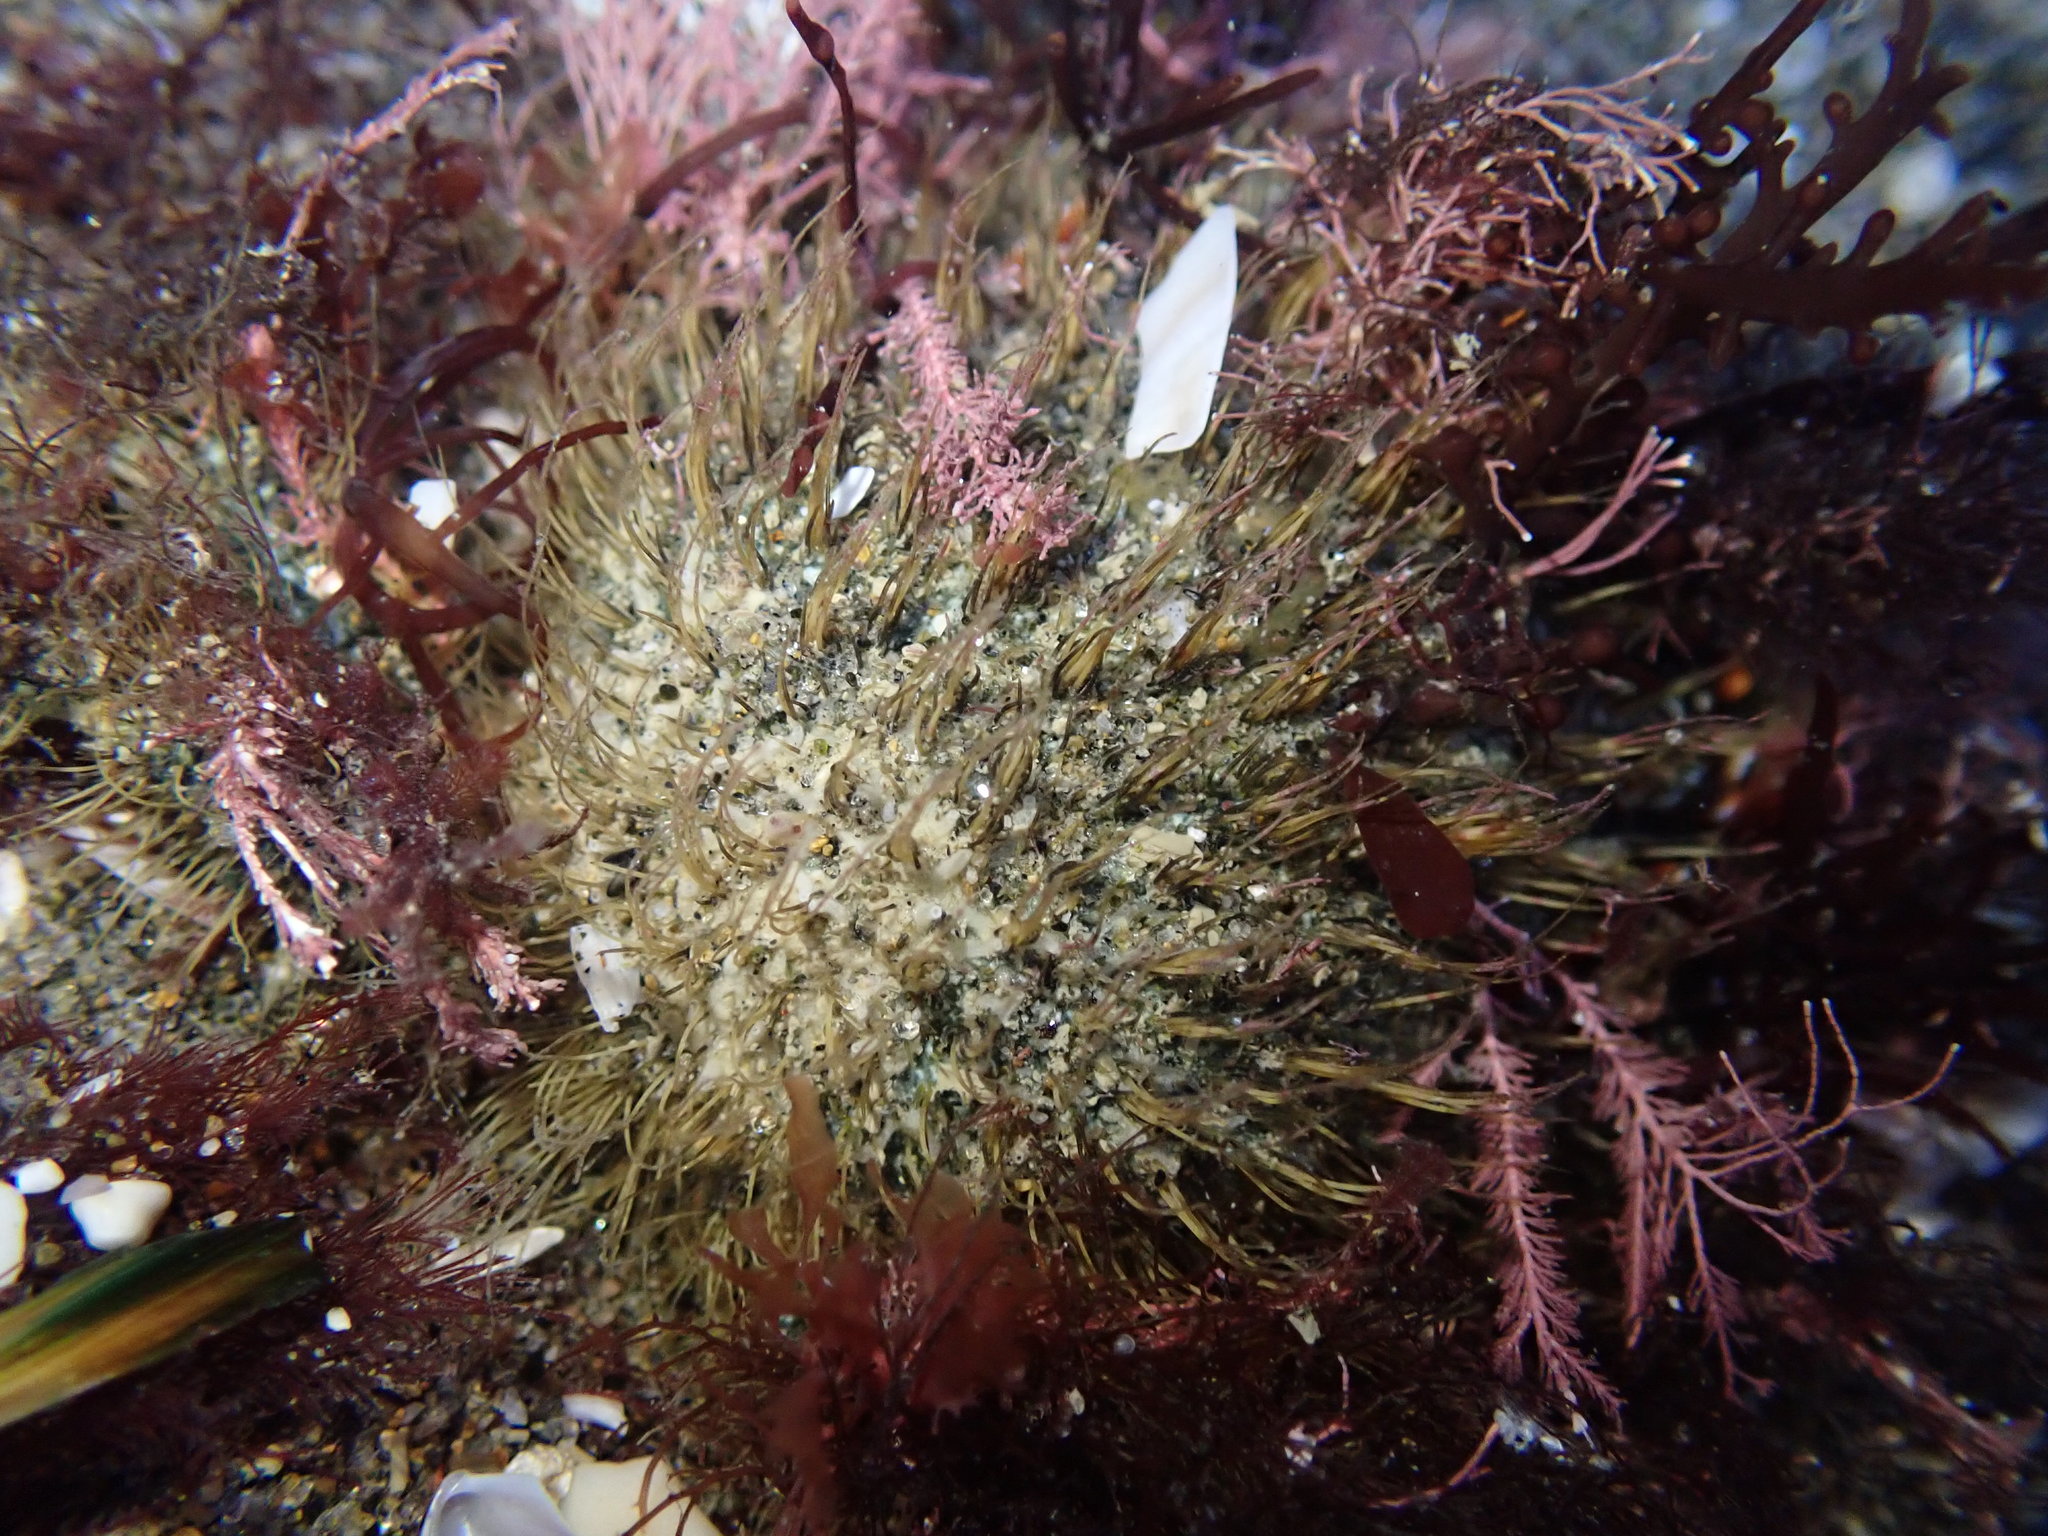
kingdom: Animalia
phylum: Arthropoda
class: Malacostraca
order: Decapoda
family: Majidae
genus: Notomithrax
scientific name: Notomithrax ursus
